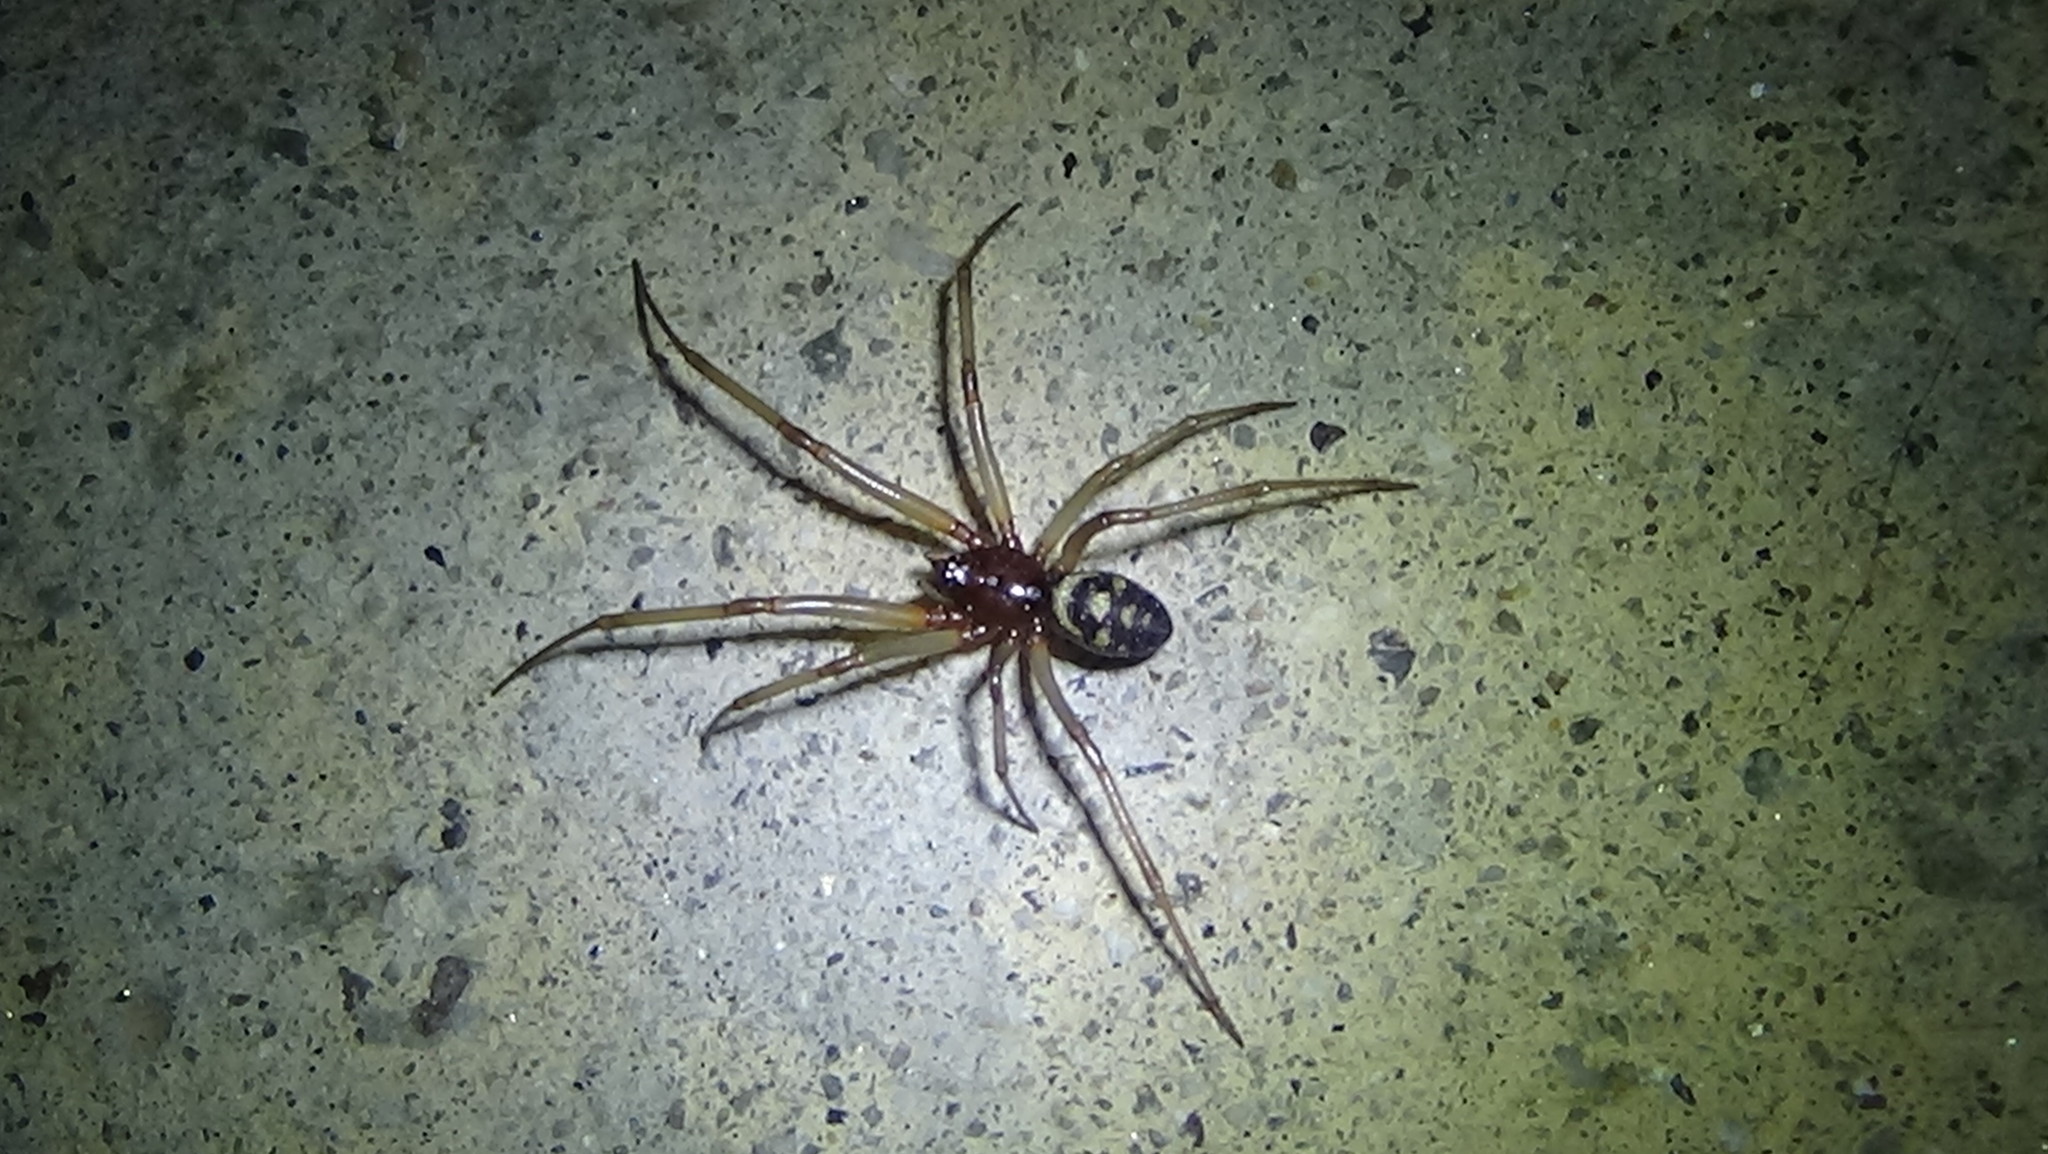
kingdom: Animalia
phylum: Arthropoda
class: Arachnida
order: Araneae
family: Theridiidae
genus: Steatoda
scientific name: Steatoda grossa
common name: False black widow
